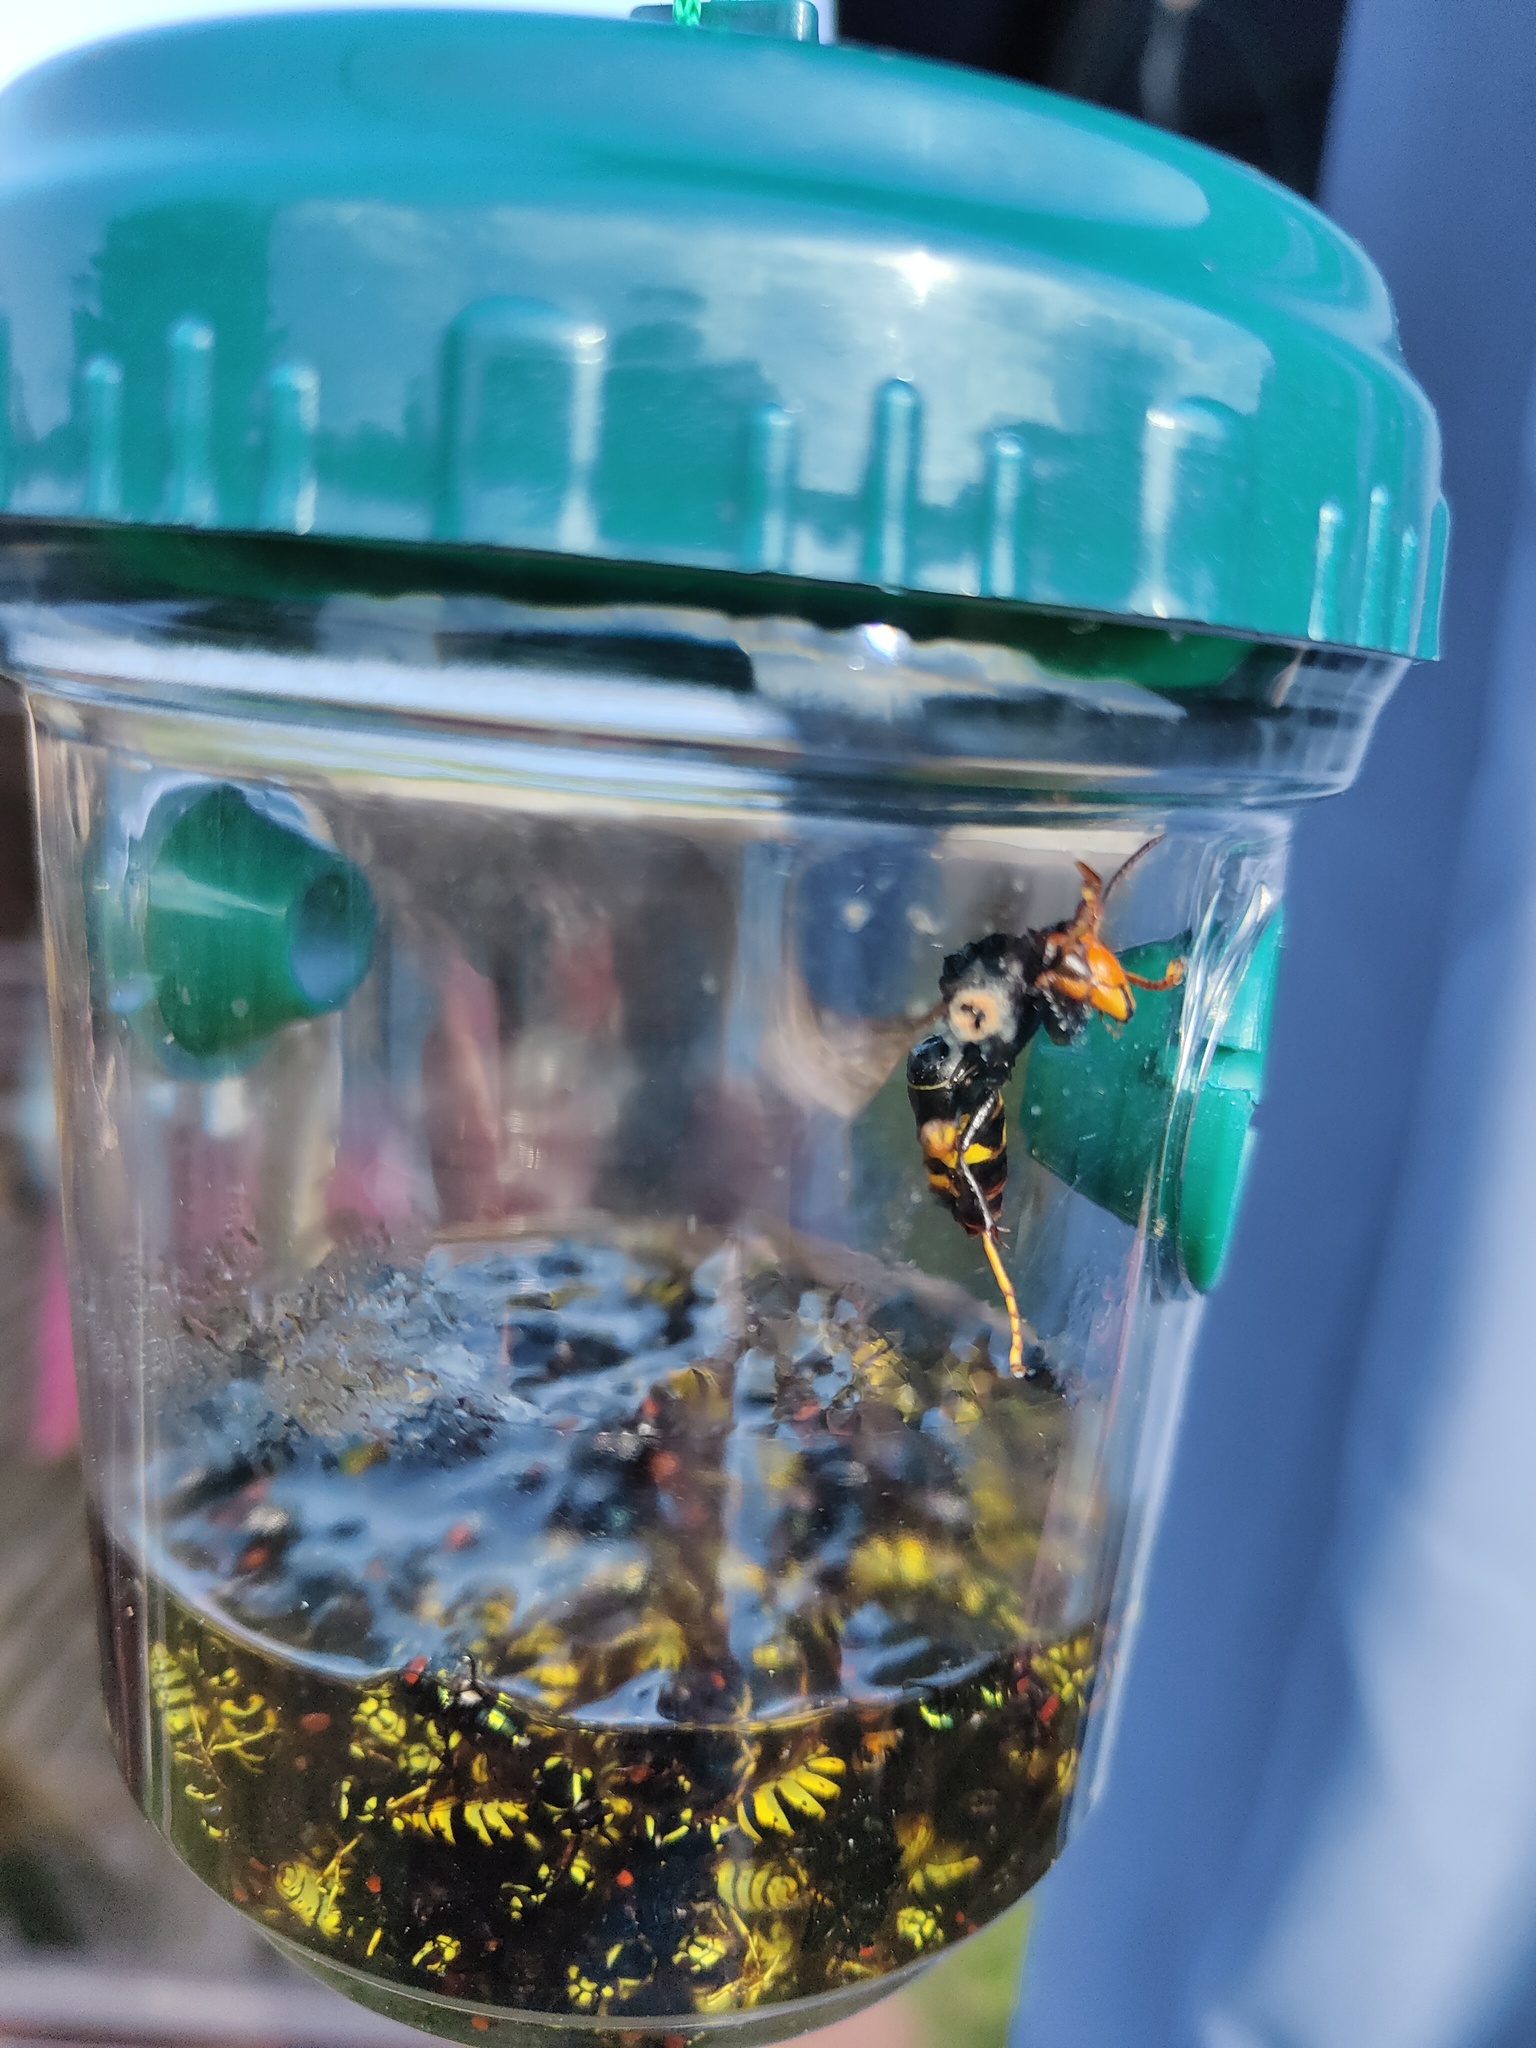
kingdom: Animalia
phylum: Arthropoda
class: Insecta
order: Hymenoptera
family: Vespidae
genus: Vespa
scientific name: Vespa velutina
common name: Asian hornet
